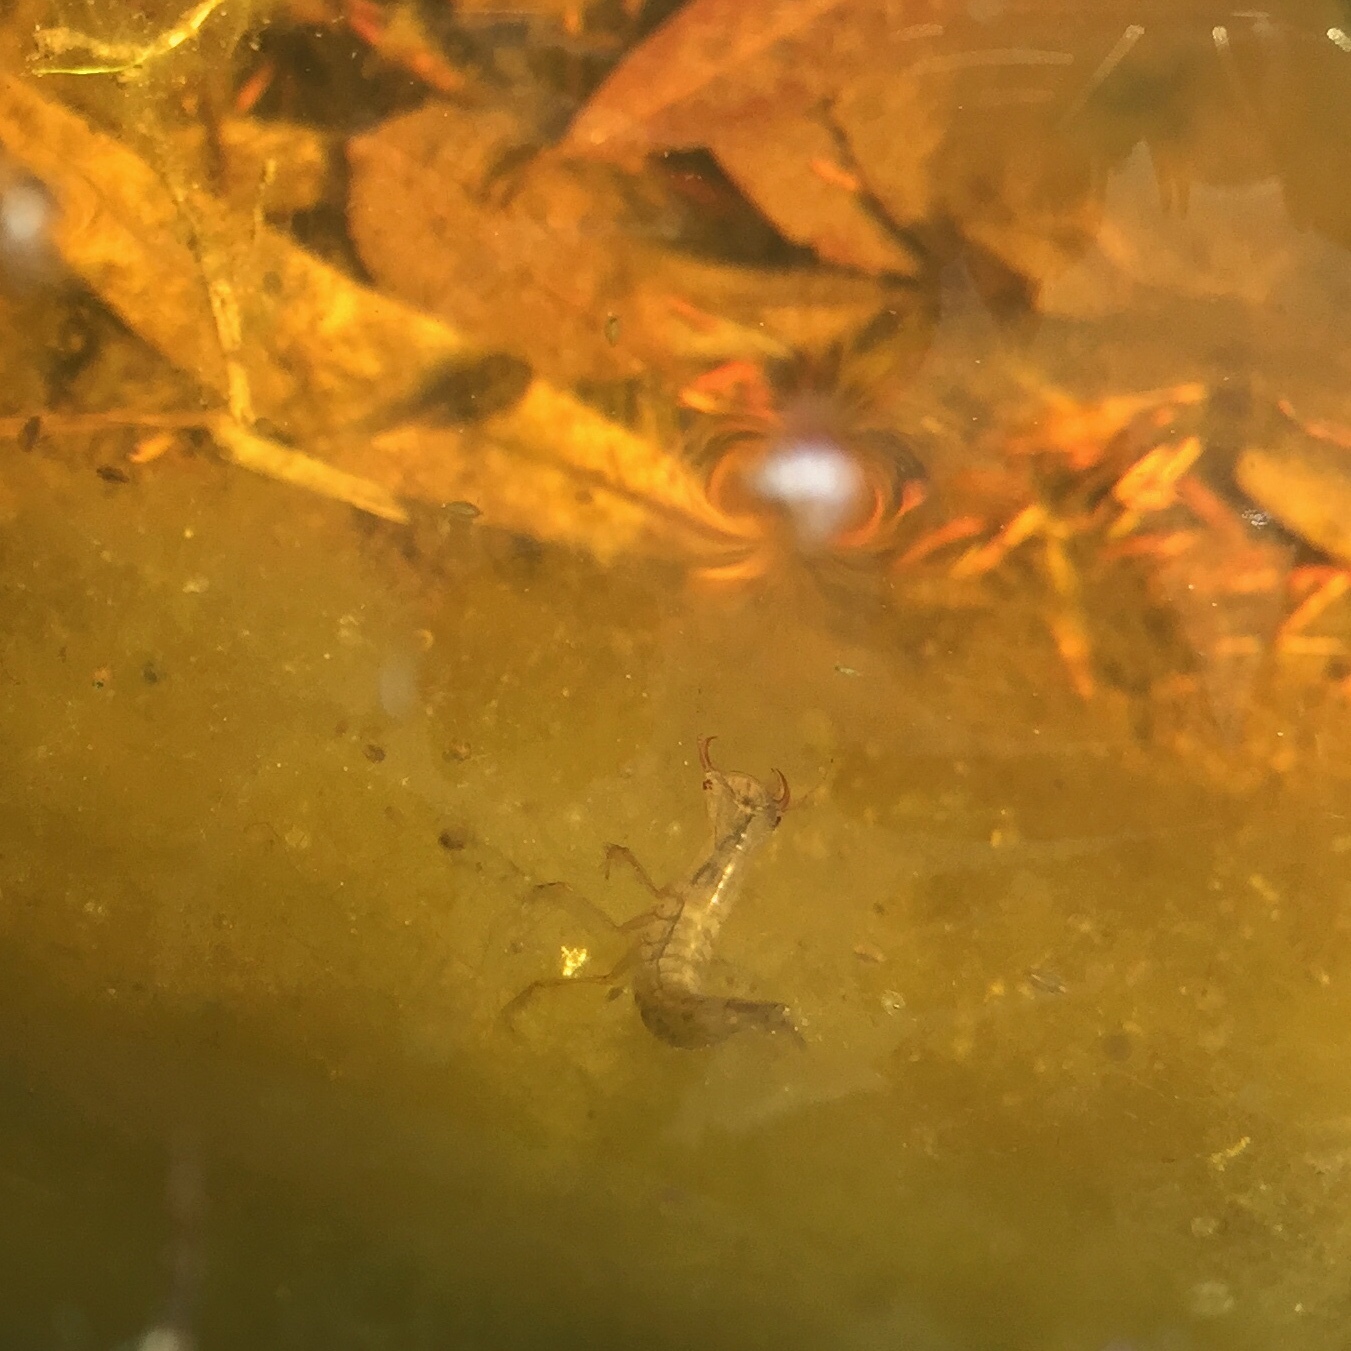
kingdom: Animalia
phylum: Arthropoda
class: Insecta
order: Coleoptera
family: Dytiscidae
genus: Dytiscus
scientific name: Dytiscus
